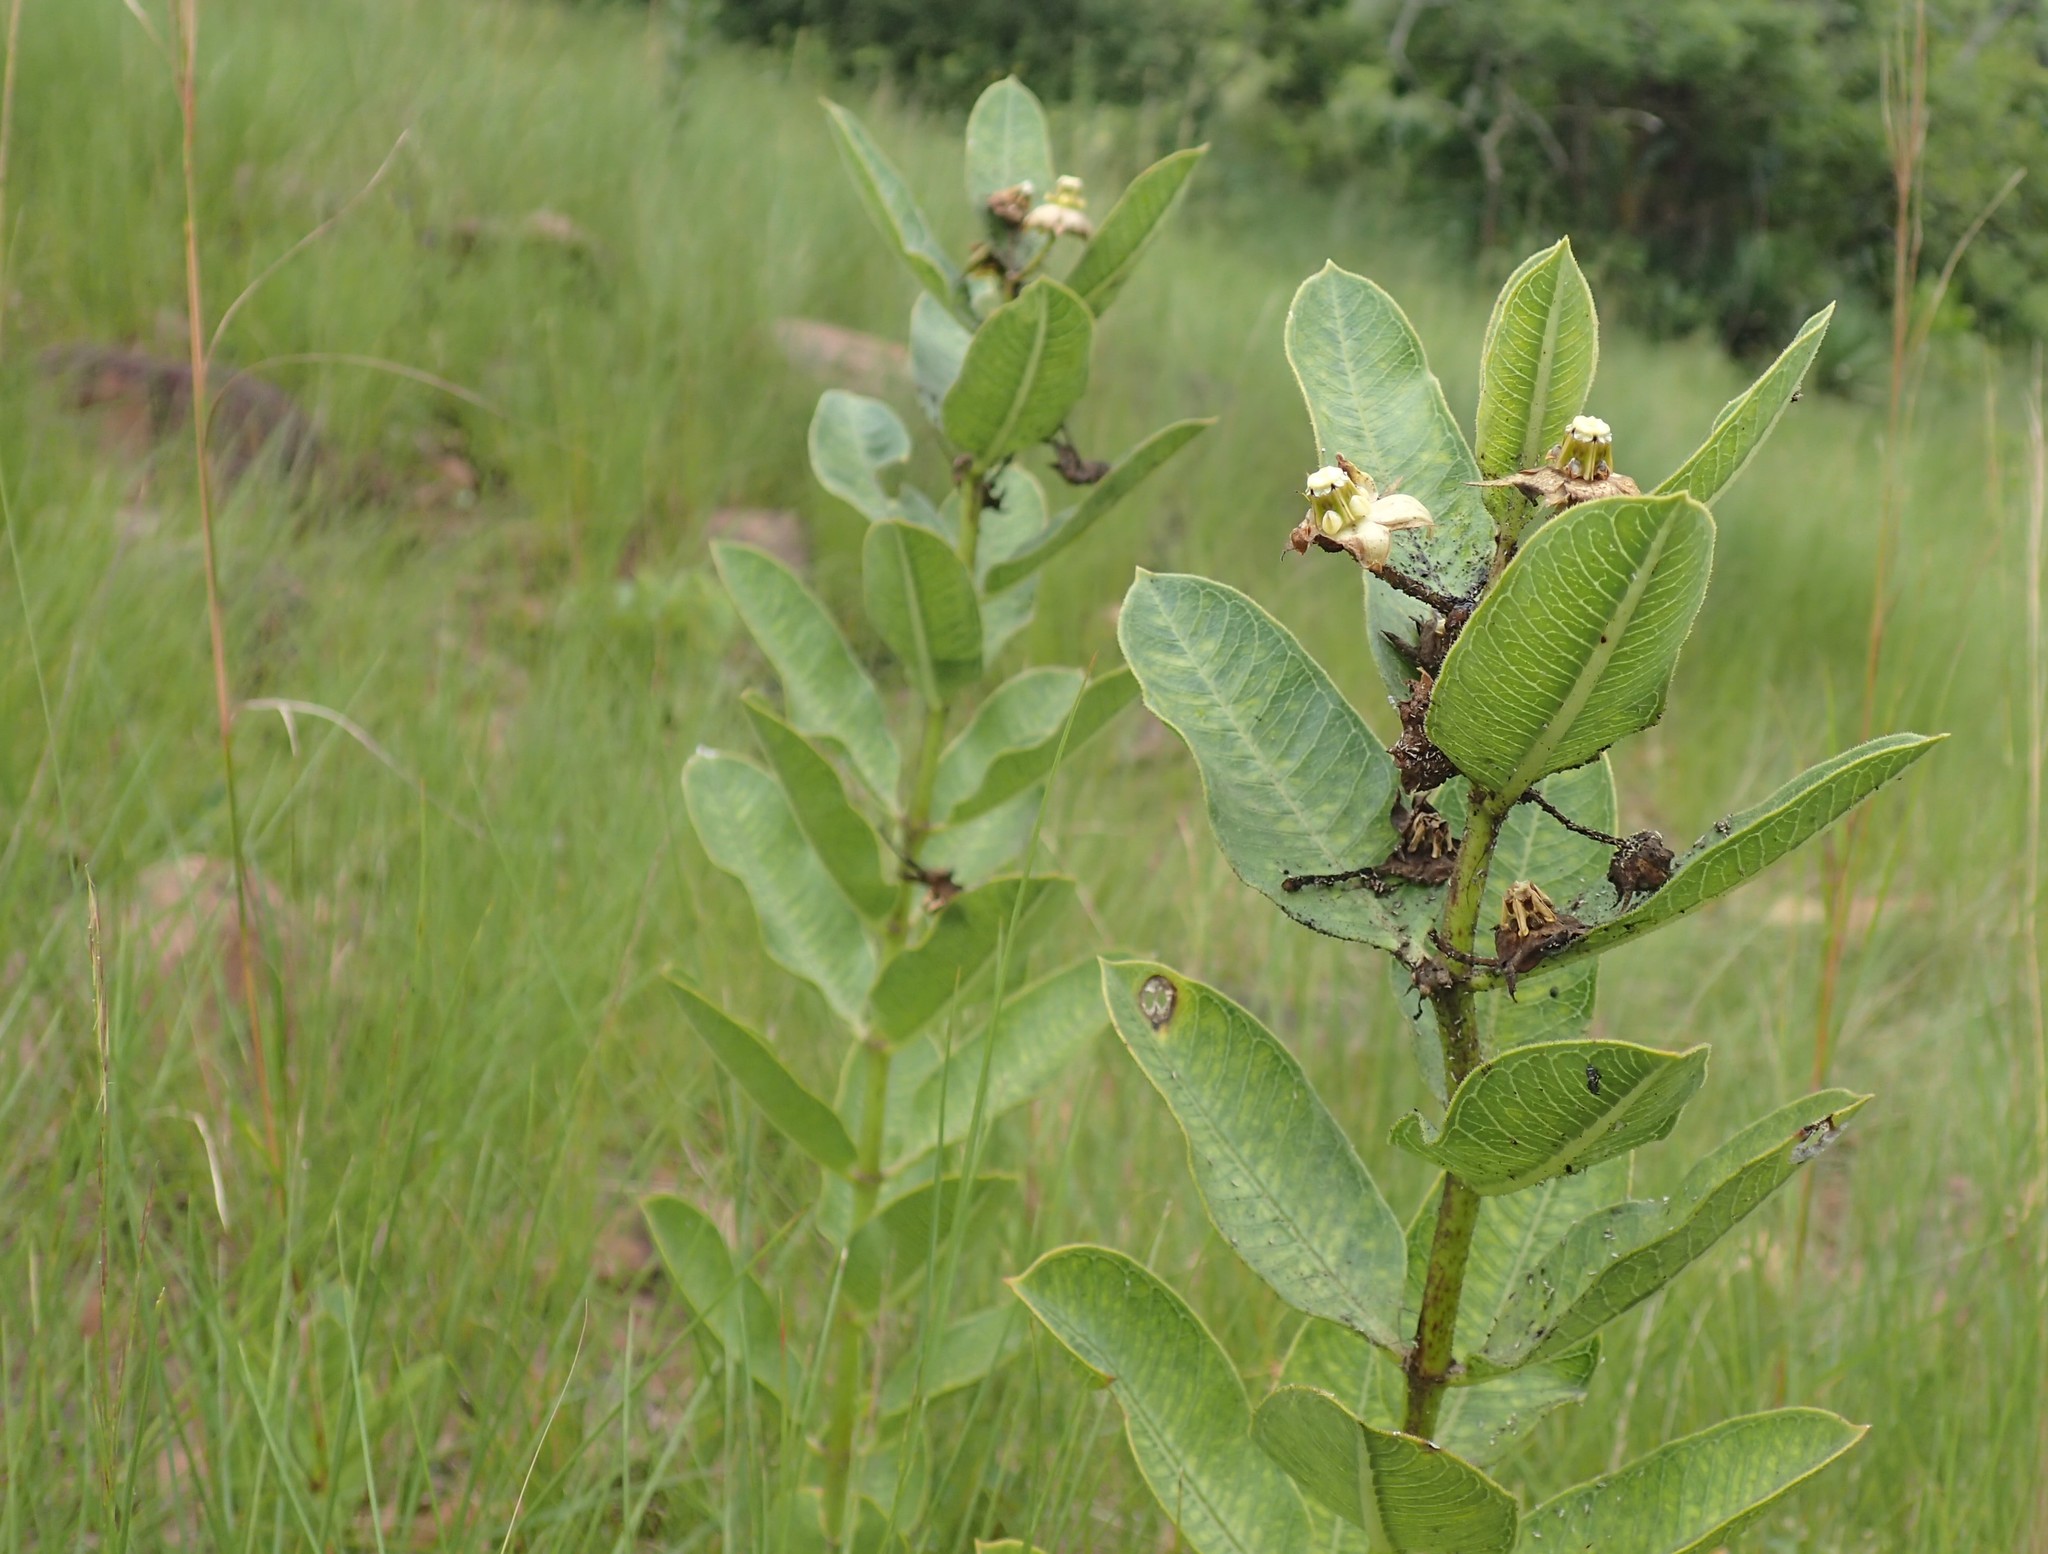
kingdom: Plantae
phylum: Tracheophyta
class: Magnoliopsida
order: Gentianales
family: Apocynaceae
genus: Pachycarpus
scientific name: Pachycarpus asperifolius
